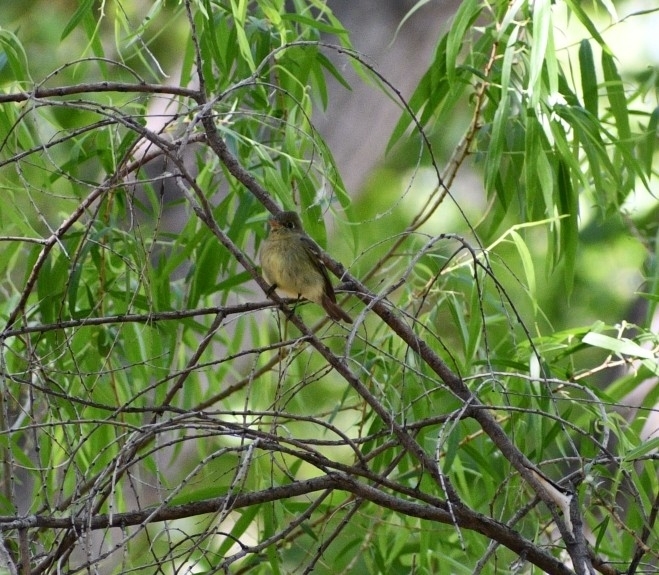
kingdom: Animalia
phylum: Chordata
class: Aves
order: Passeriformes
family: Tyrannidae
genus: Empidonax
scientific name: Empidonax difficilis
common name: Pacific-slope flycatcher
